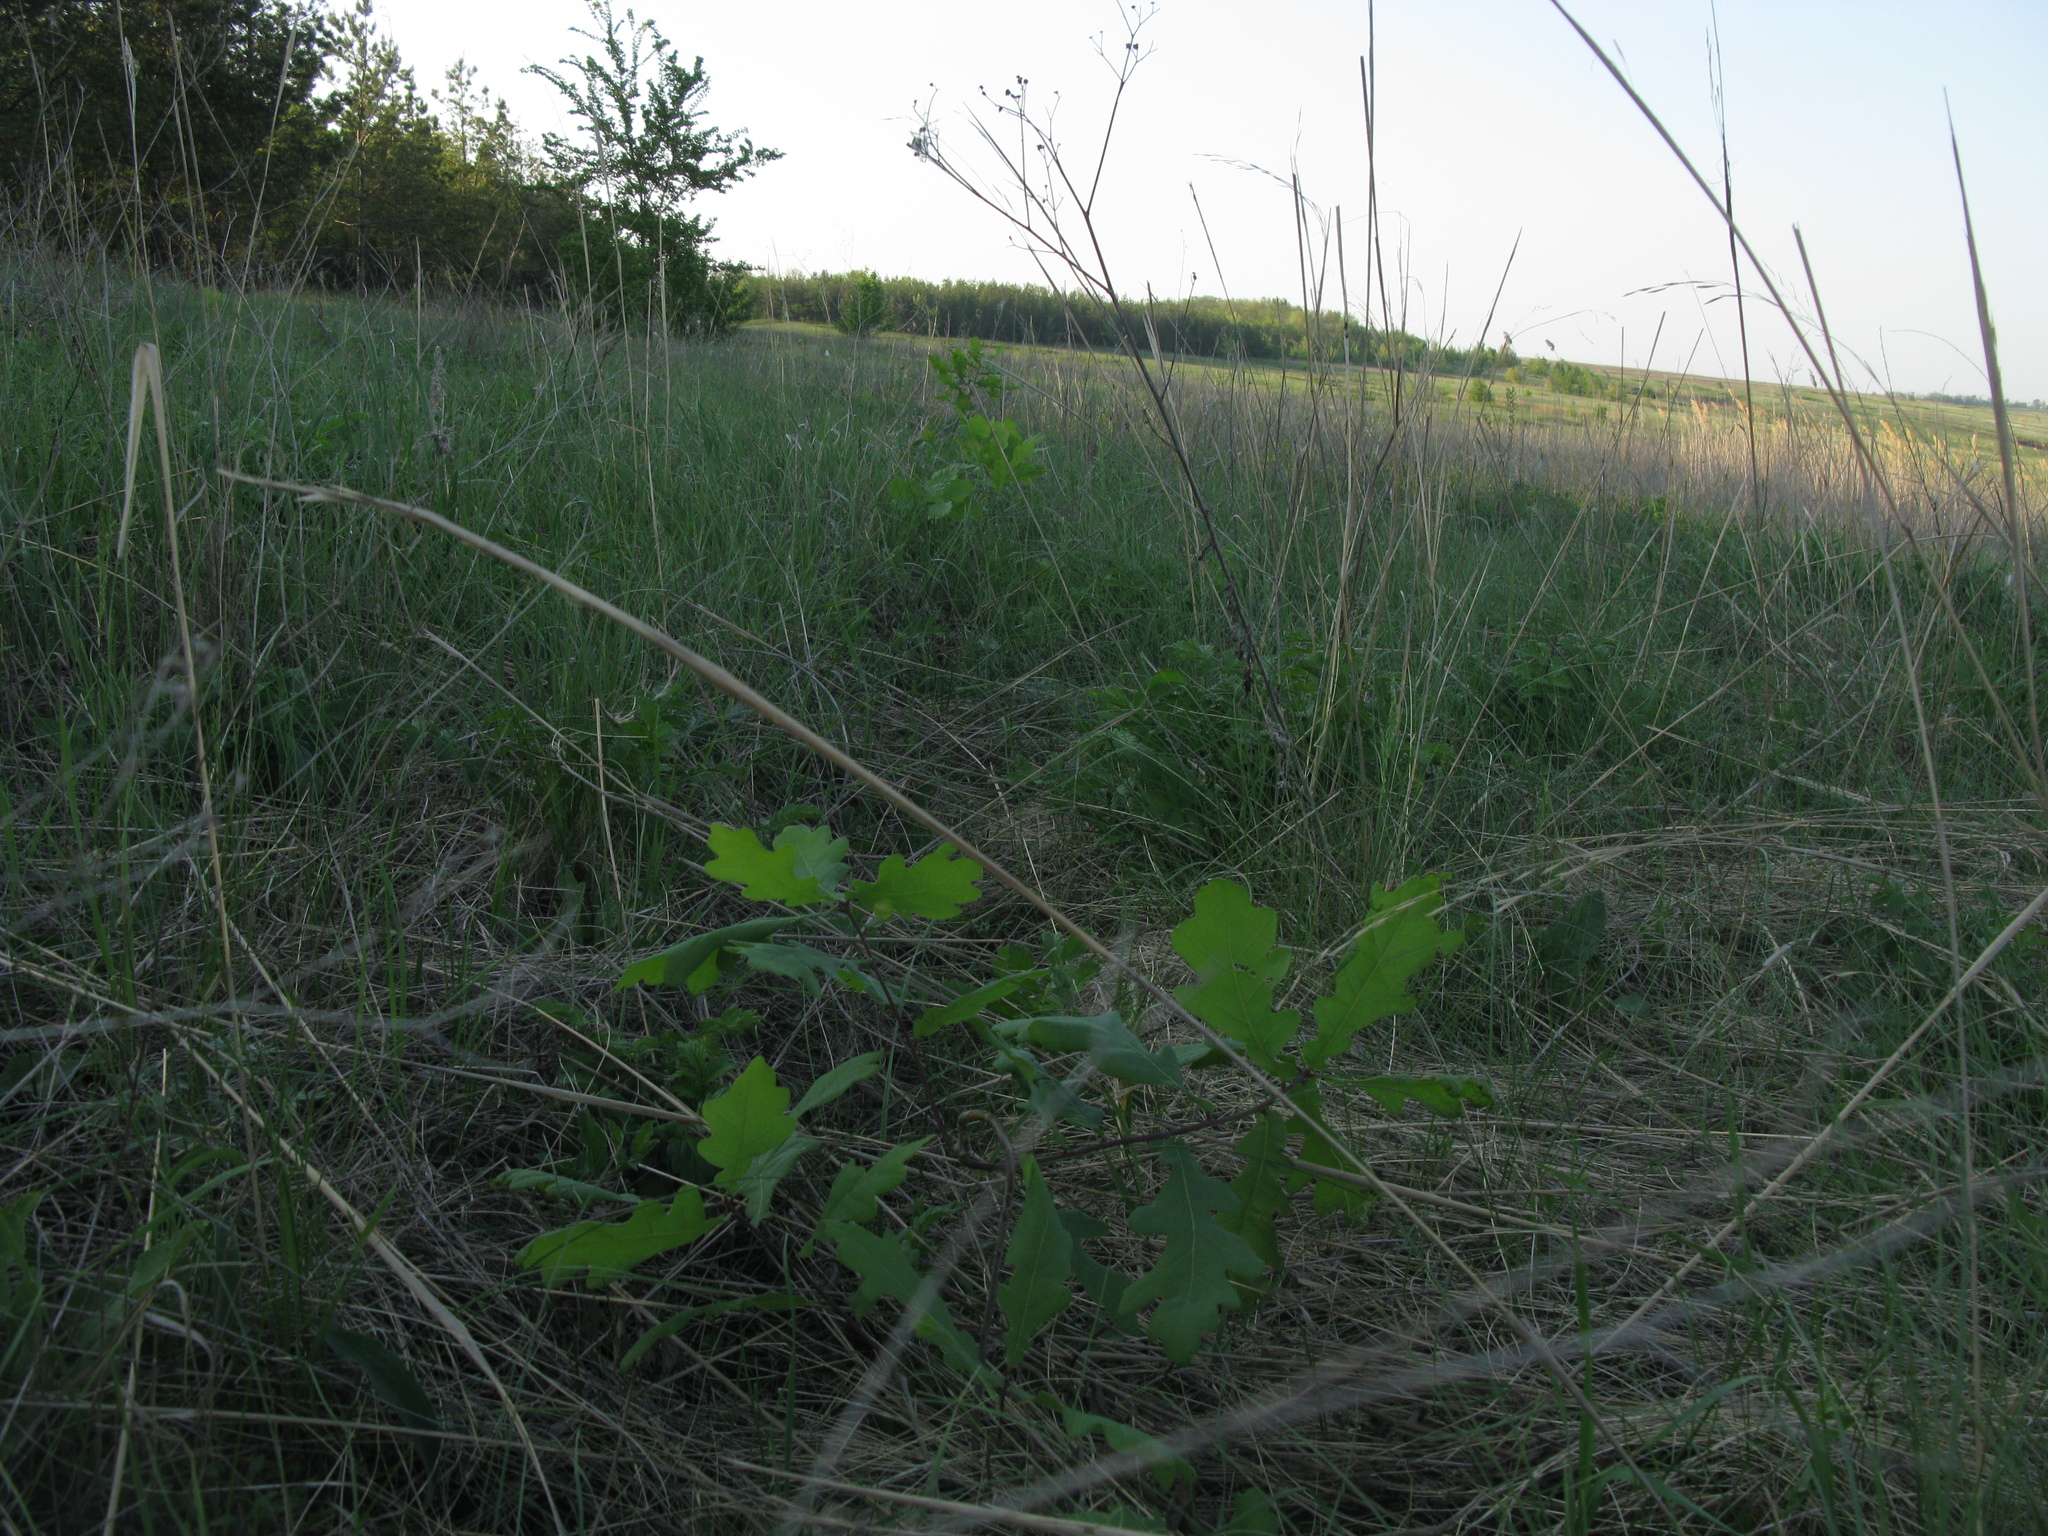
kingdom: Plantae
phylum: Tracheophyta
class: Magnoliopsida
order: Fagales
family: Fagaceae
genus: Quercus
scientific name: Quercus robur
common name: Pedunculate oak
